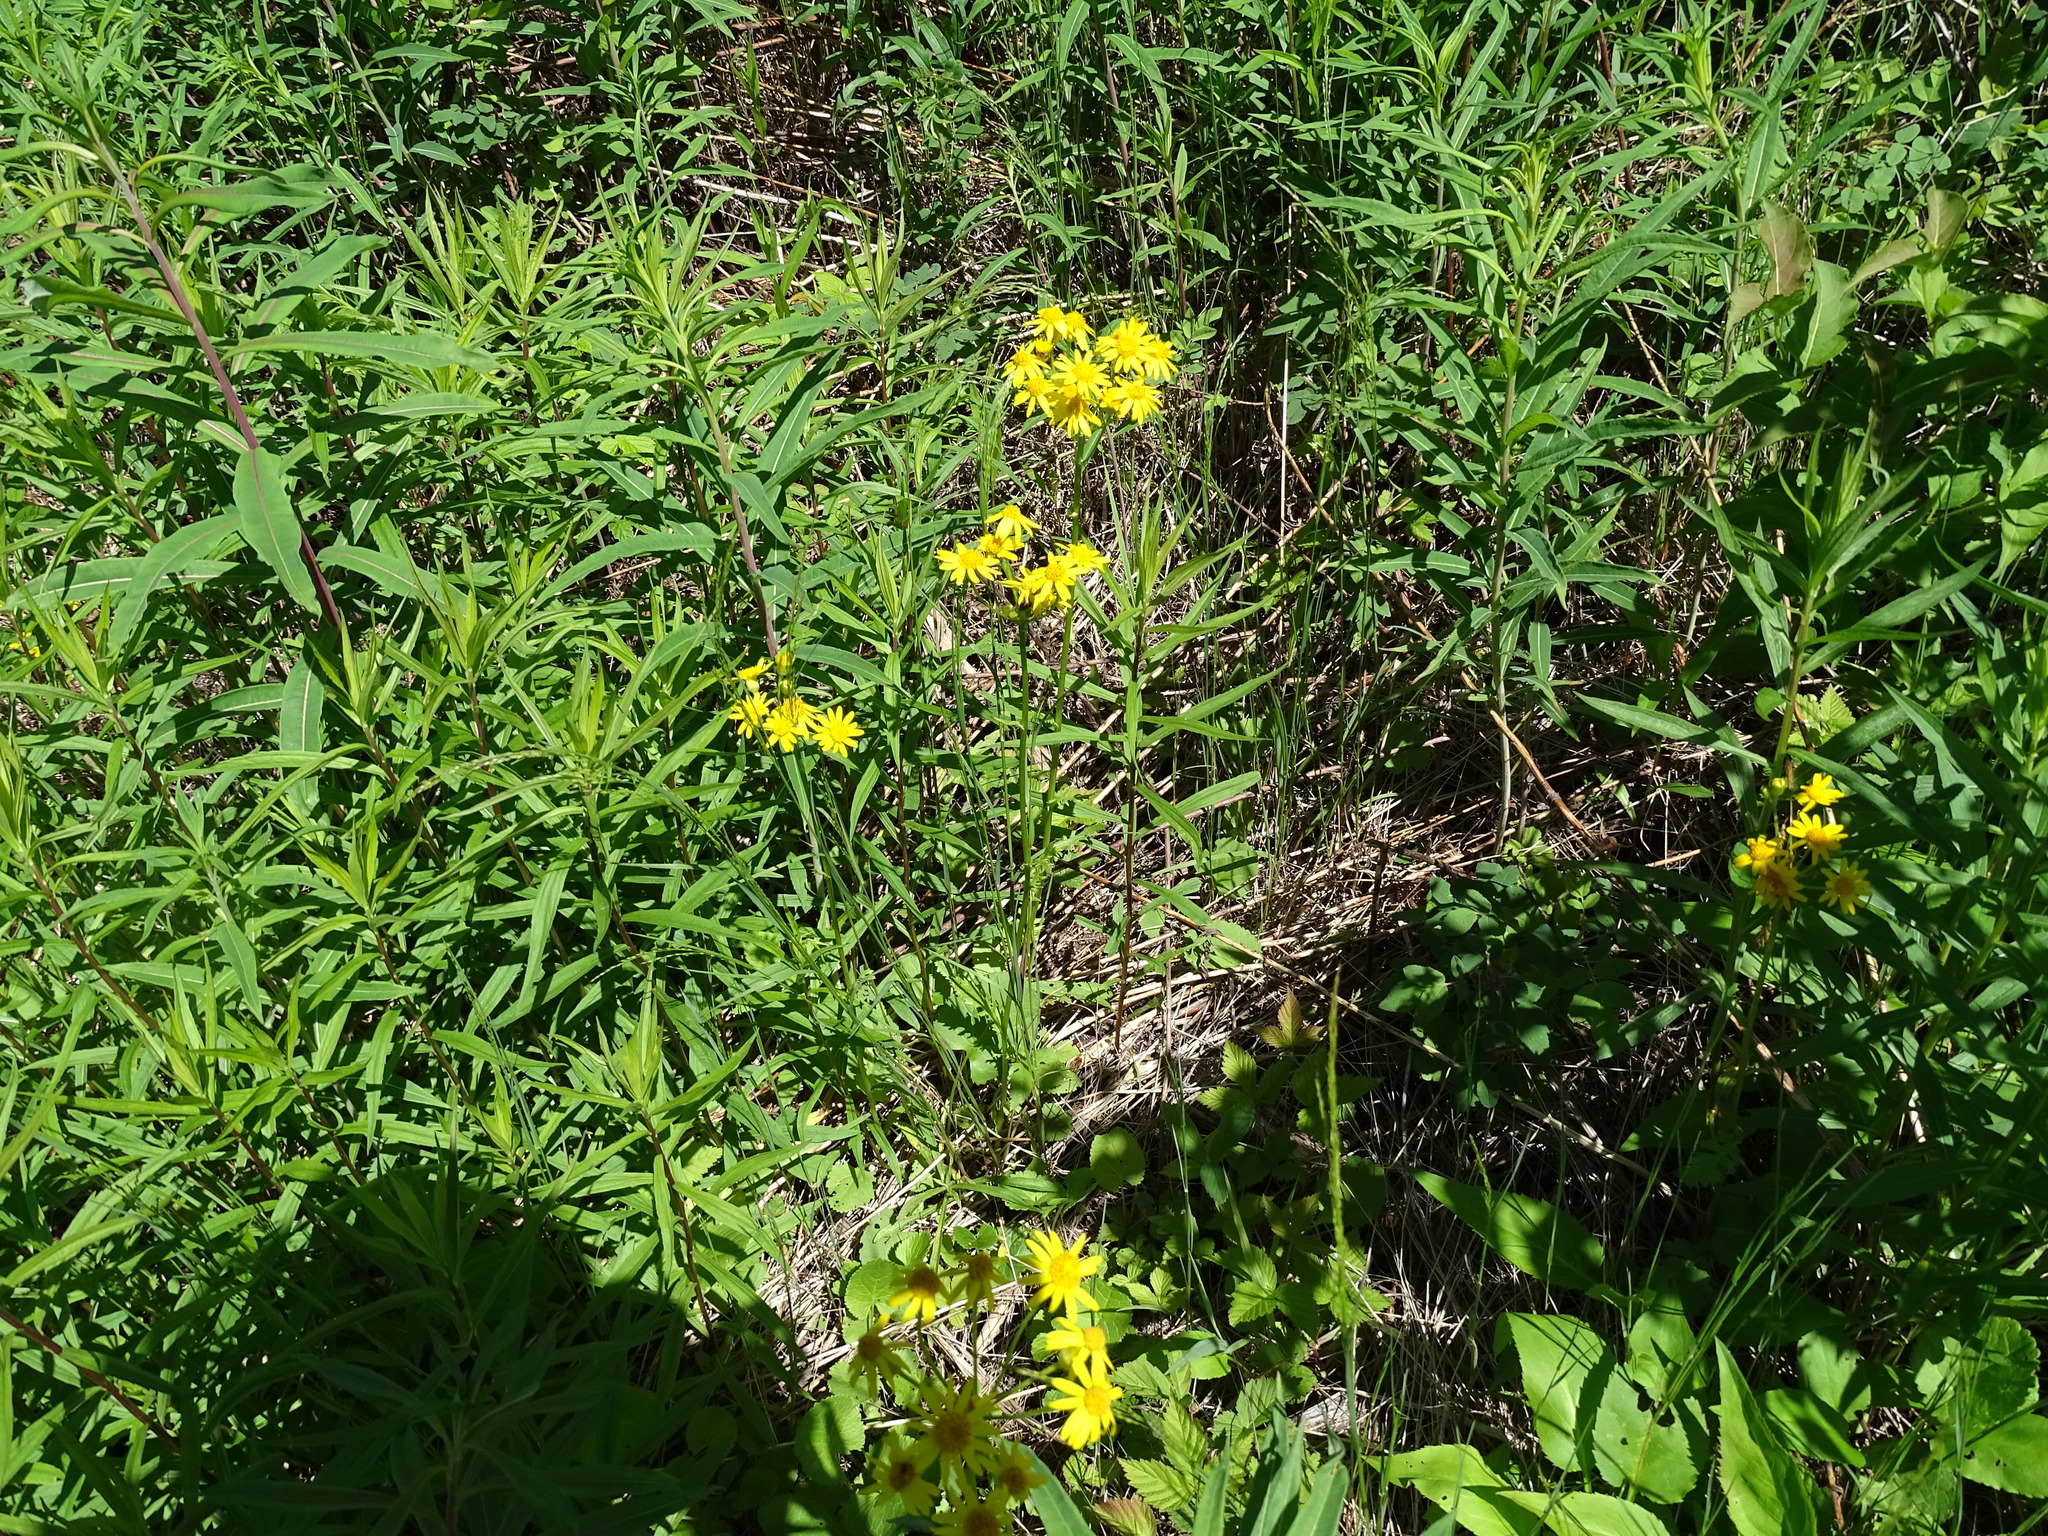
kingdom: Plantae
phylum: Tracheophyta
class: Magnoliopsida
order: Asterales
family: Asteraceae
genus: Packera
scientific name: Packera aurea
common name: Golden groundsel
